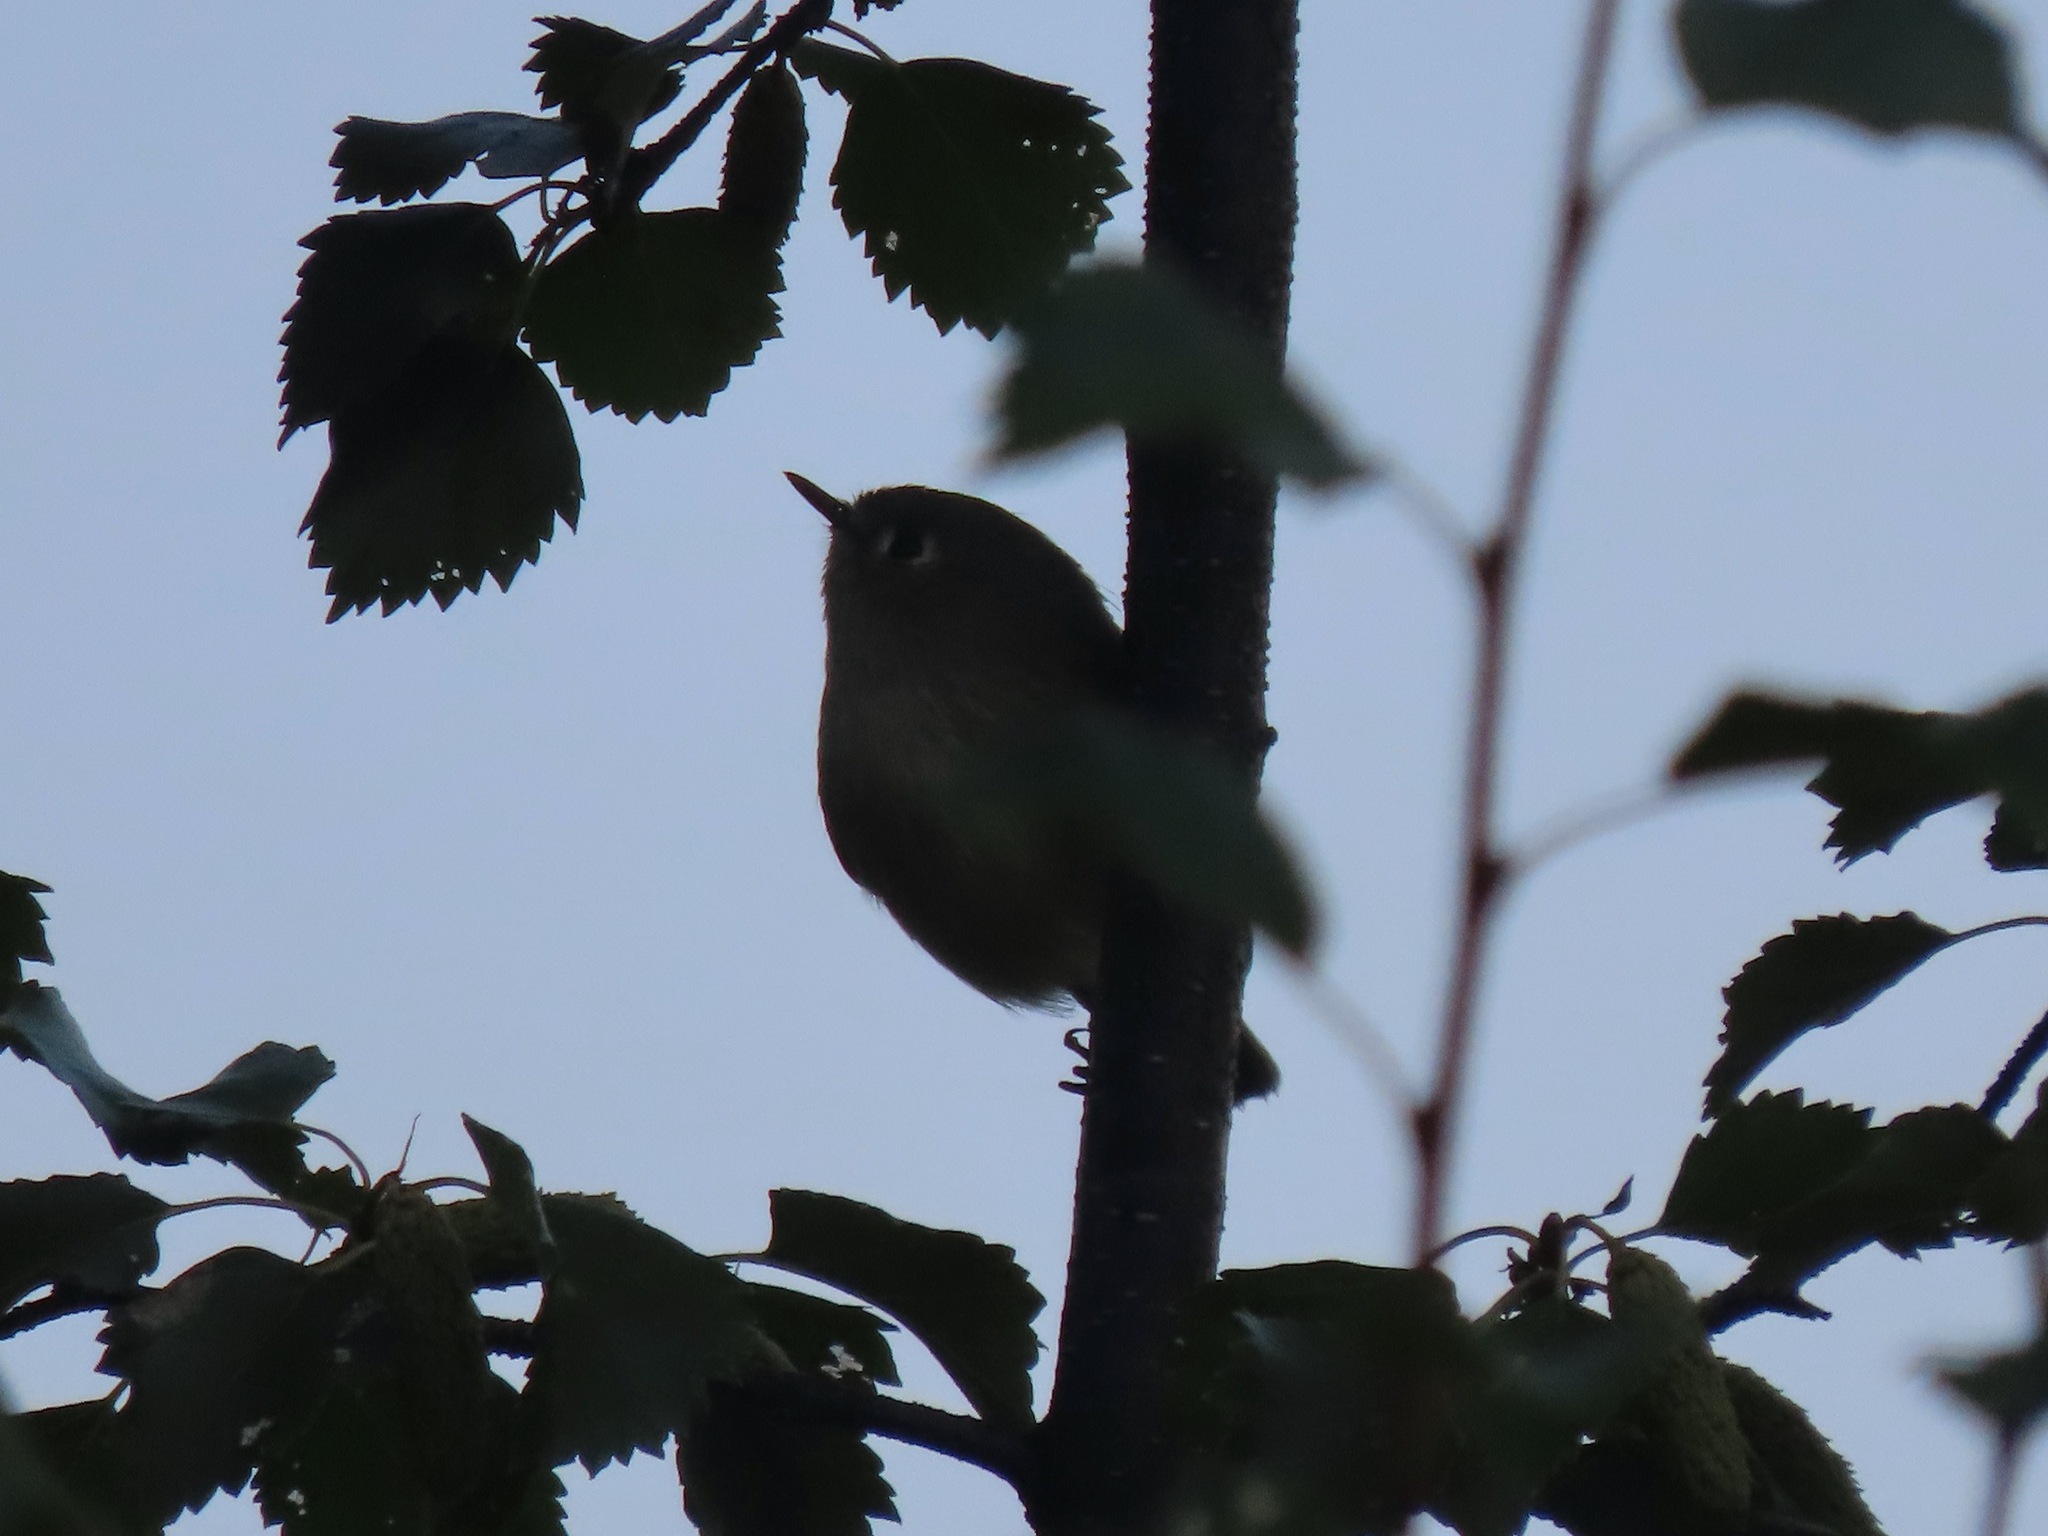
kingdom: Animalia
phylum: Chordata
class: Aves
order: Passeriformes
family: Regulidae
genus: Regulus
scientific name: Regulus calendula
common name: Ruby-crowned kinglet
